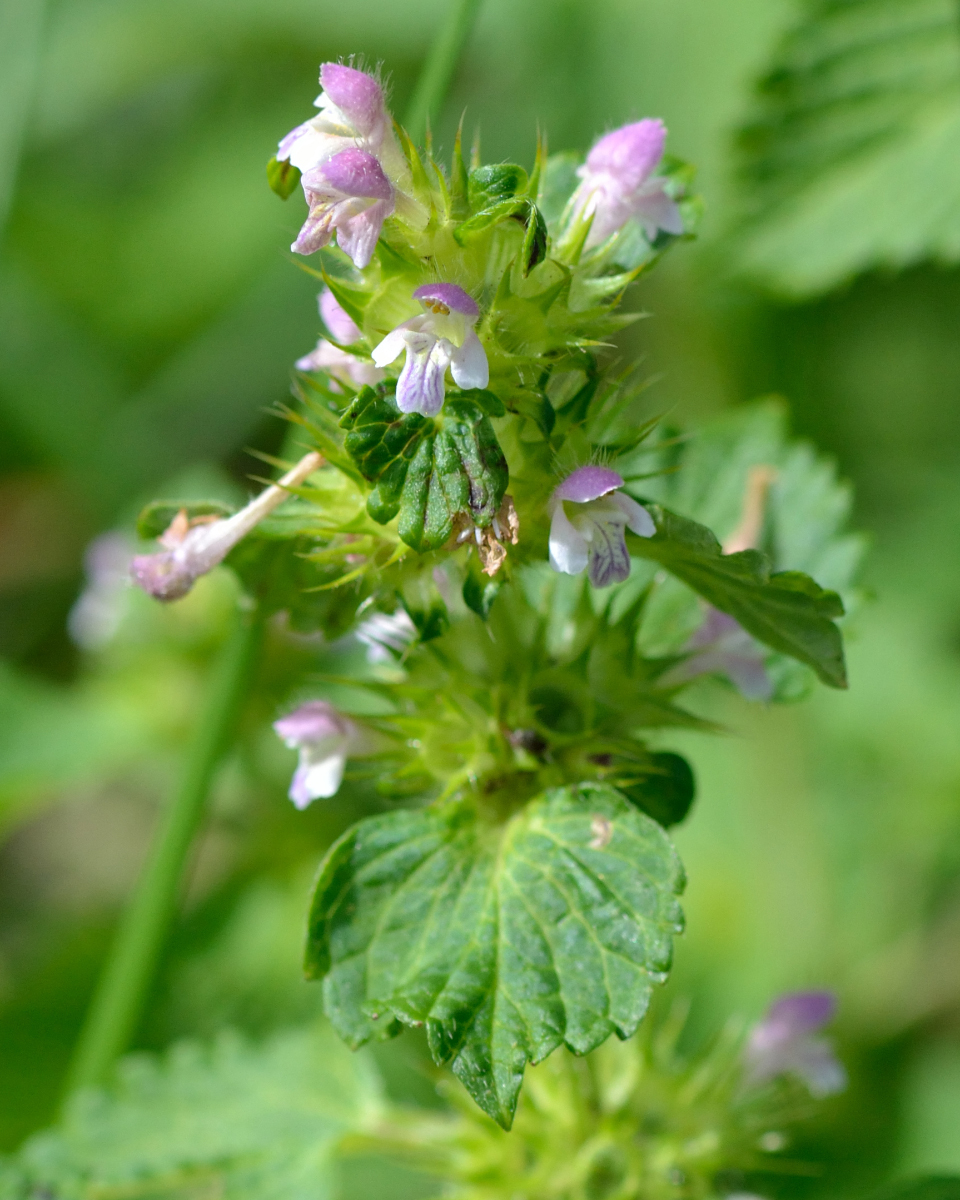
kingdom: Plantae
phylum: Tracheophyta
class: Magnoliopsida
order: Lamiales
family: Lamiaceae
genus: Galeopsis
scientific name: Galeopsis bifida
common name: Bifid hemp-nettle
